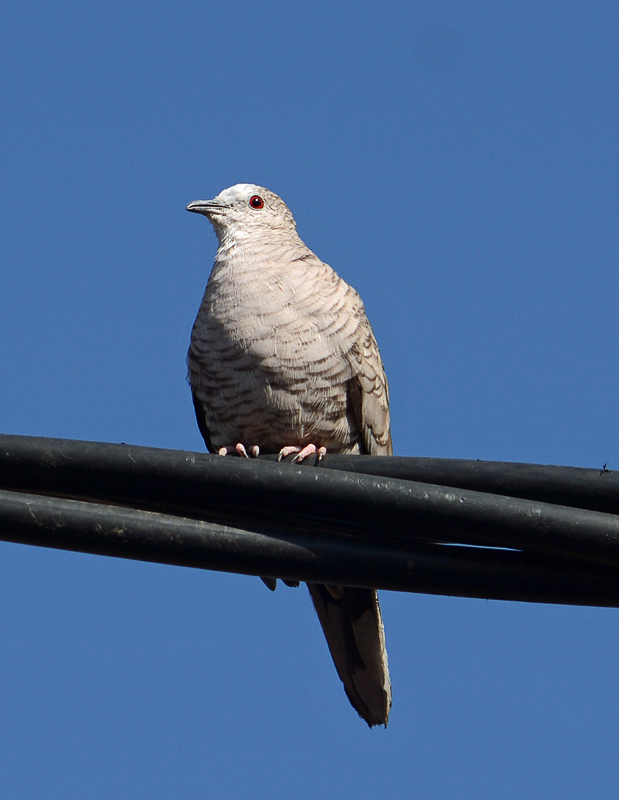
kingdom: Animalia
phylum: Chordata
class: Aves
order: Columbiformes
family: Columbidae
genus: Columbina
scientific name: Columbina inca
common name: Inca dove
